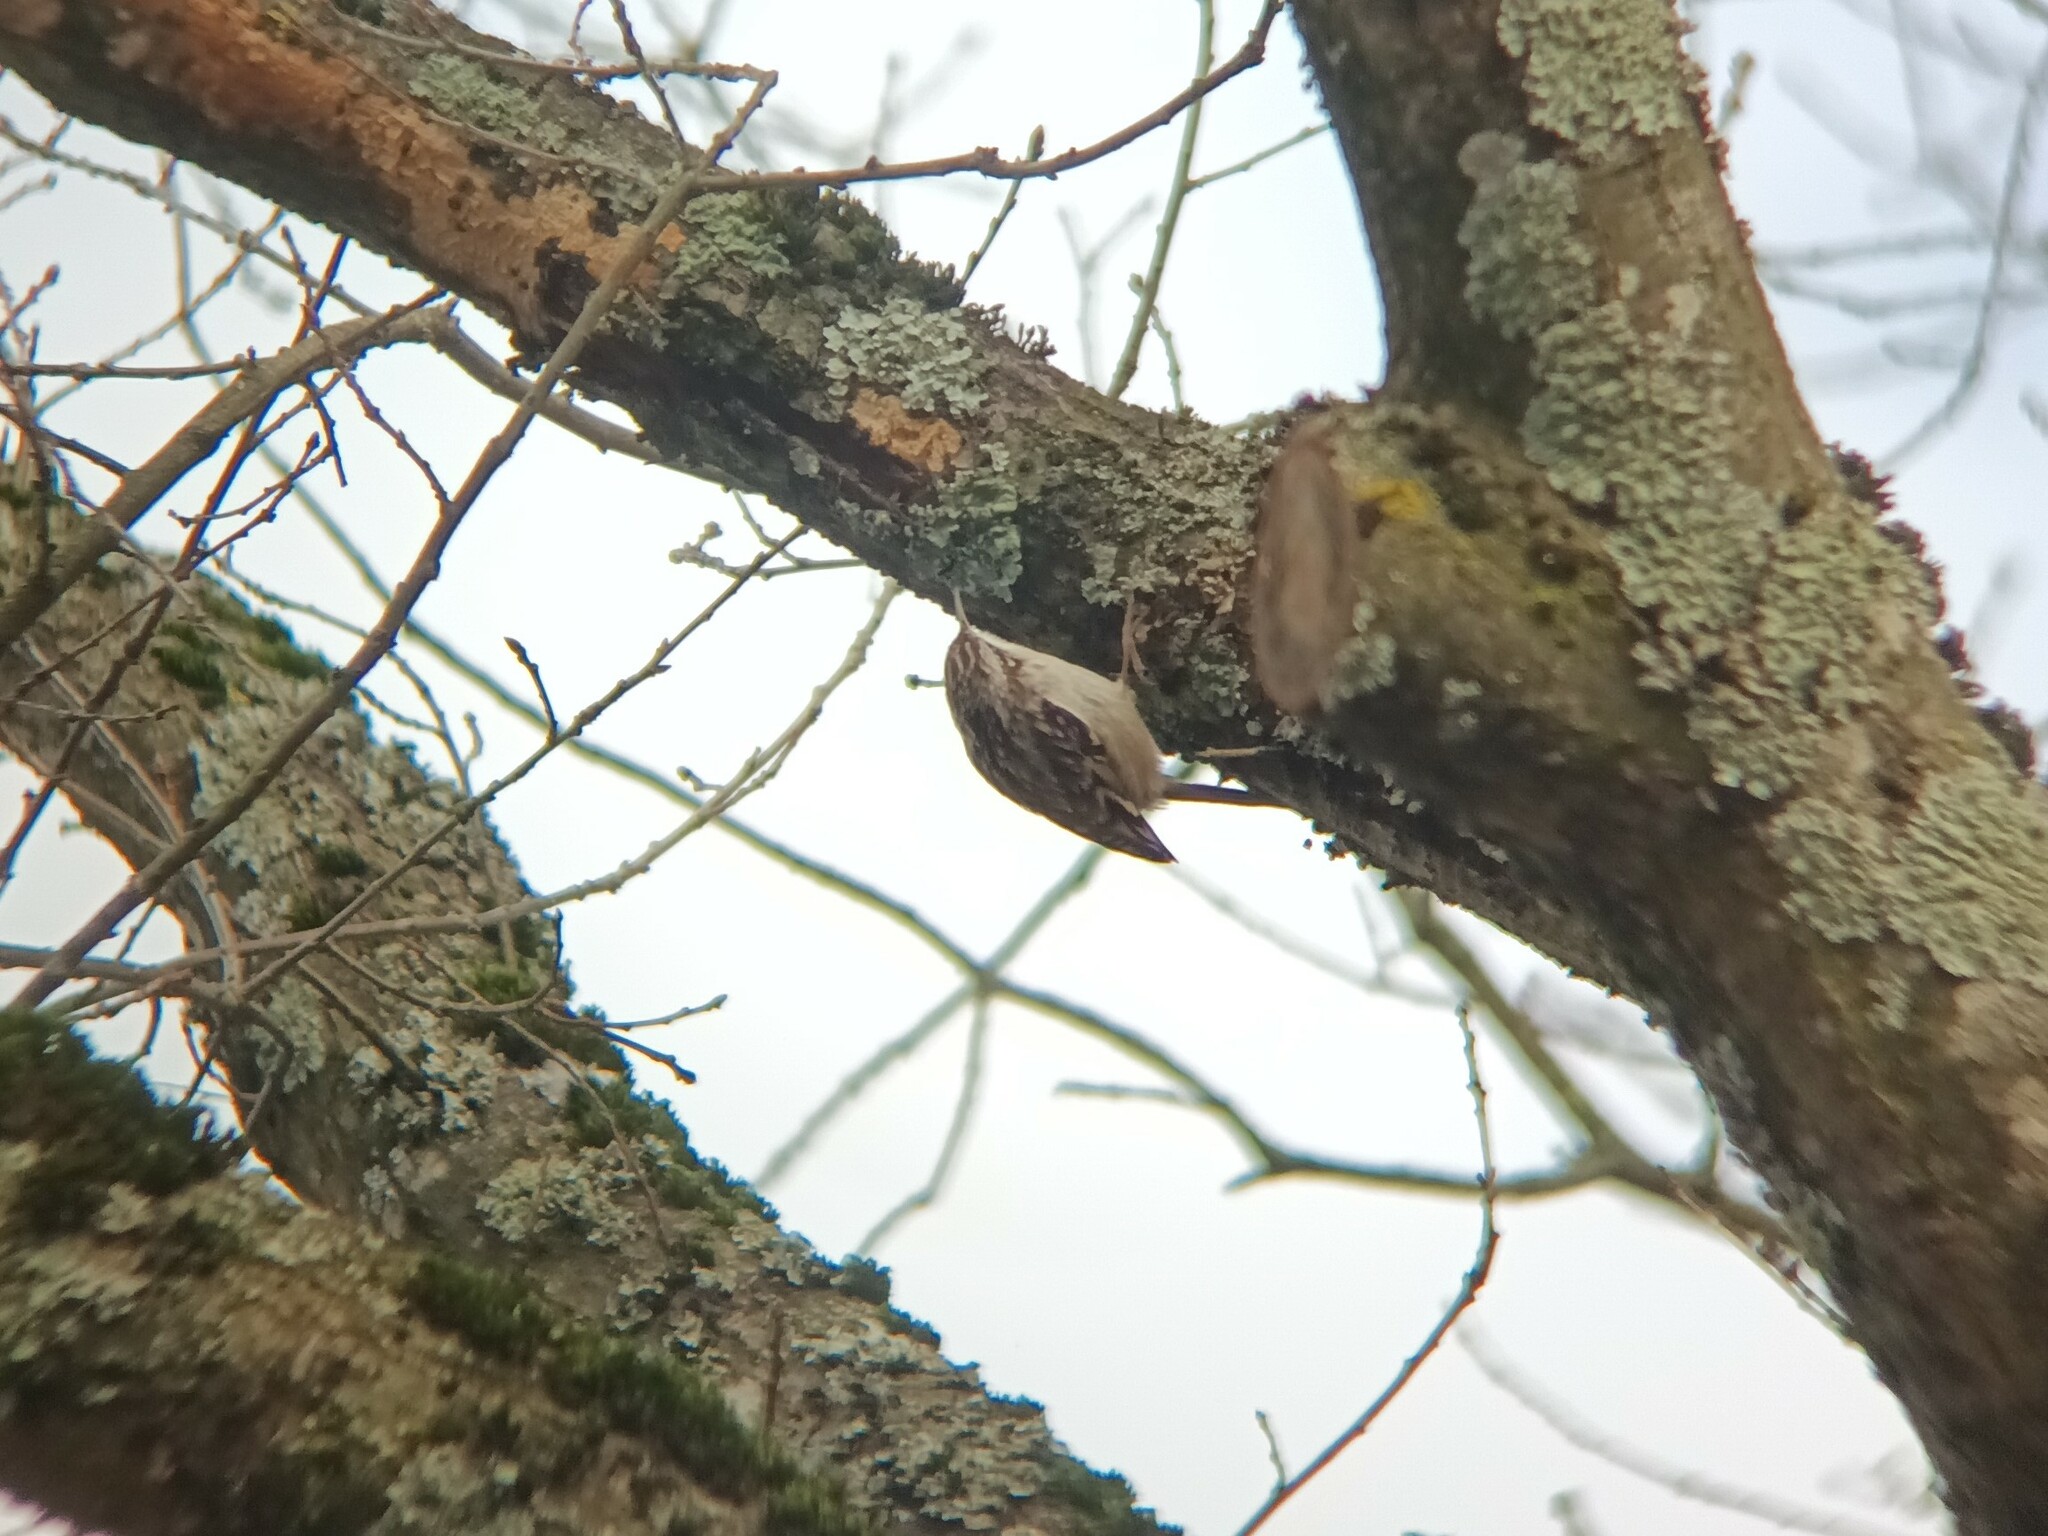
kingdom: Animalia
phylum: Chordata
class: Aves
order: Passeriformes
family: Certhiidae
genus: Certhia
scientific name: Certhia brachydactyla
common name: Short-toed treecreeper
